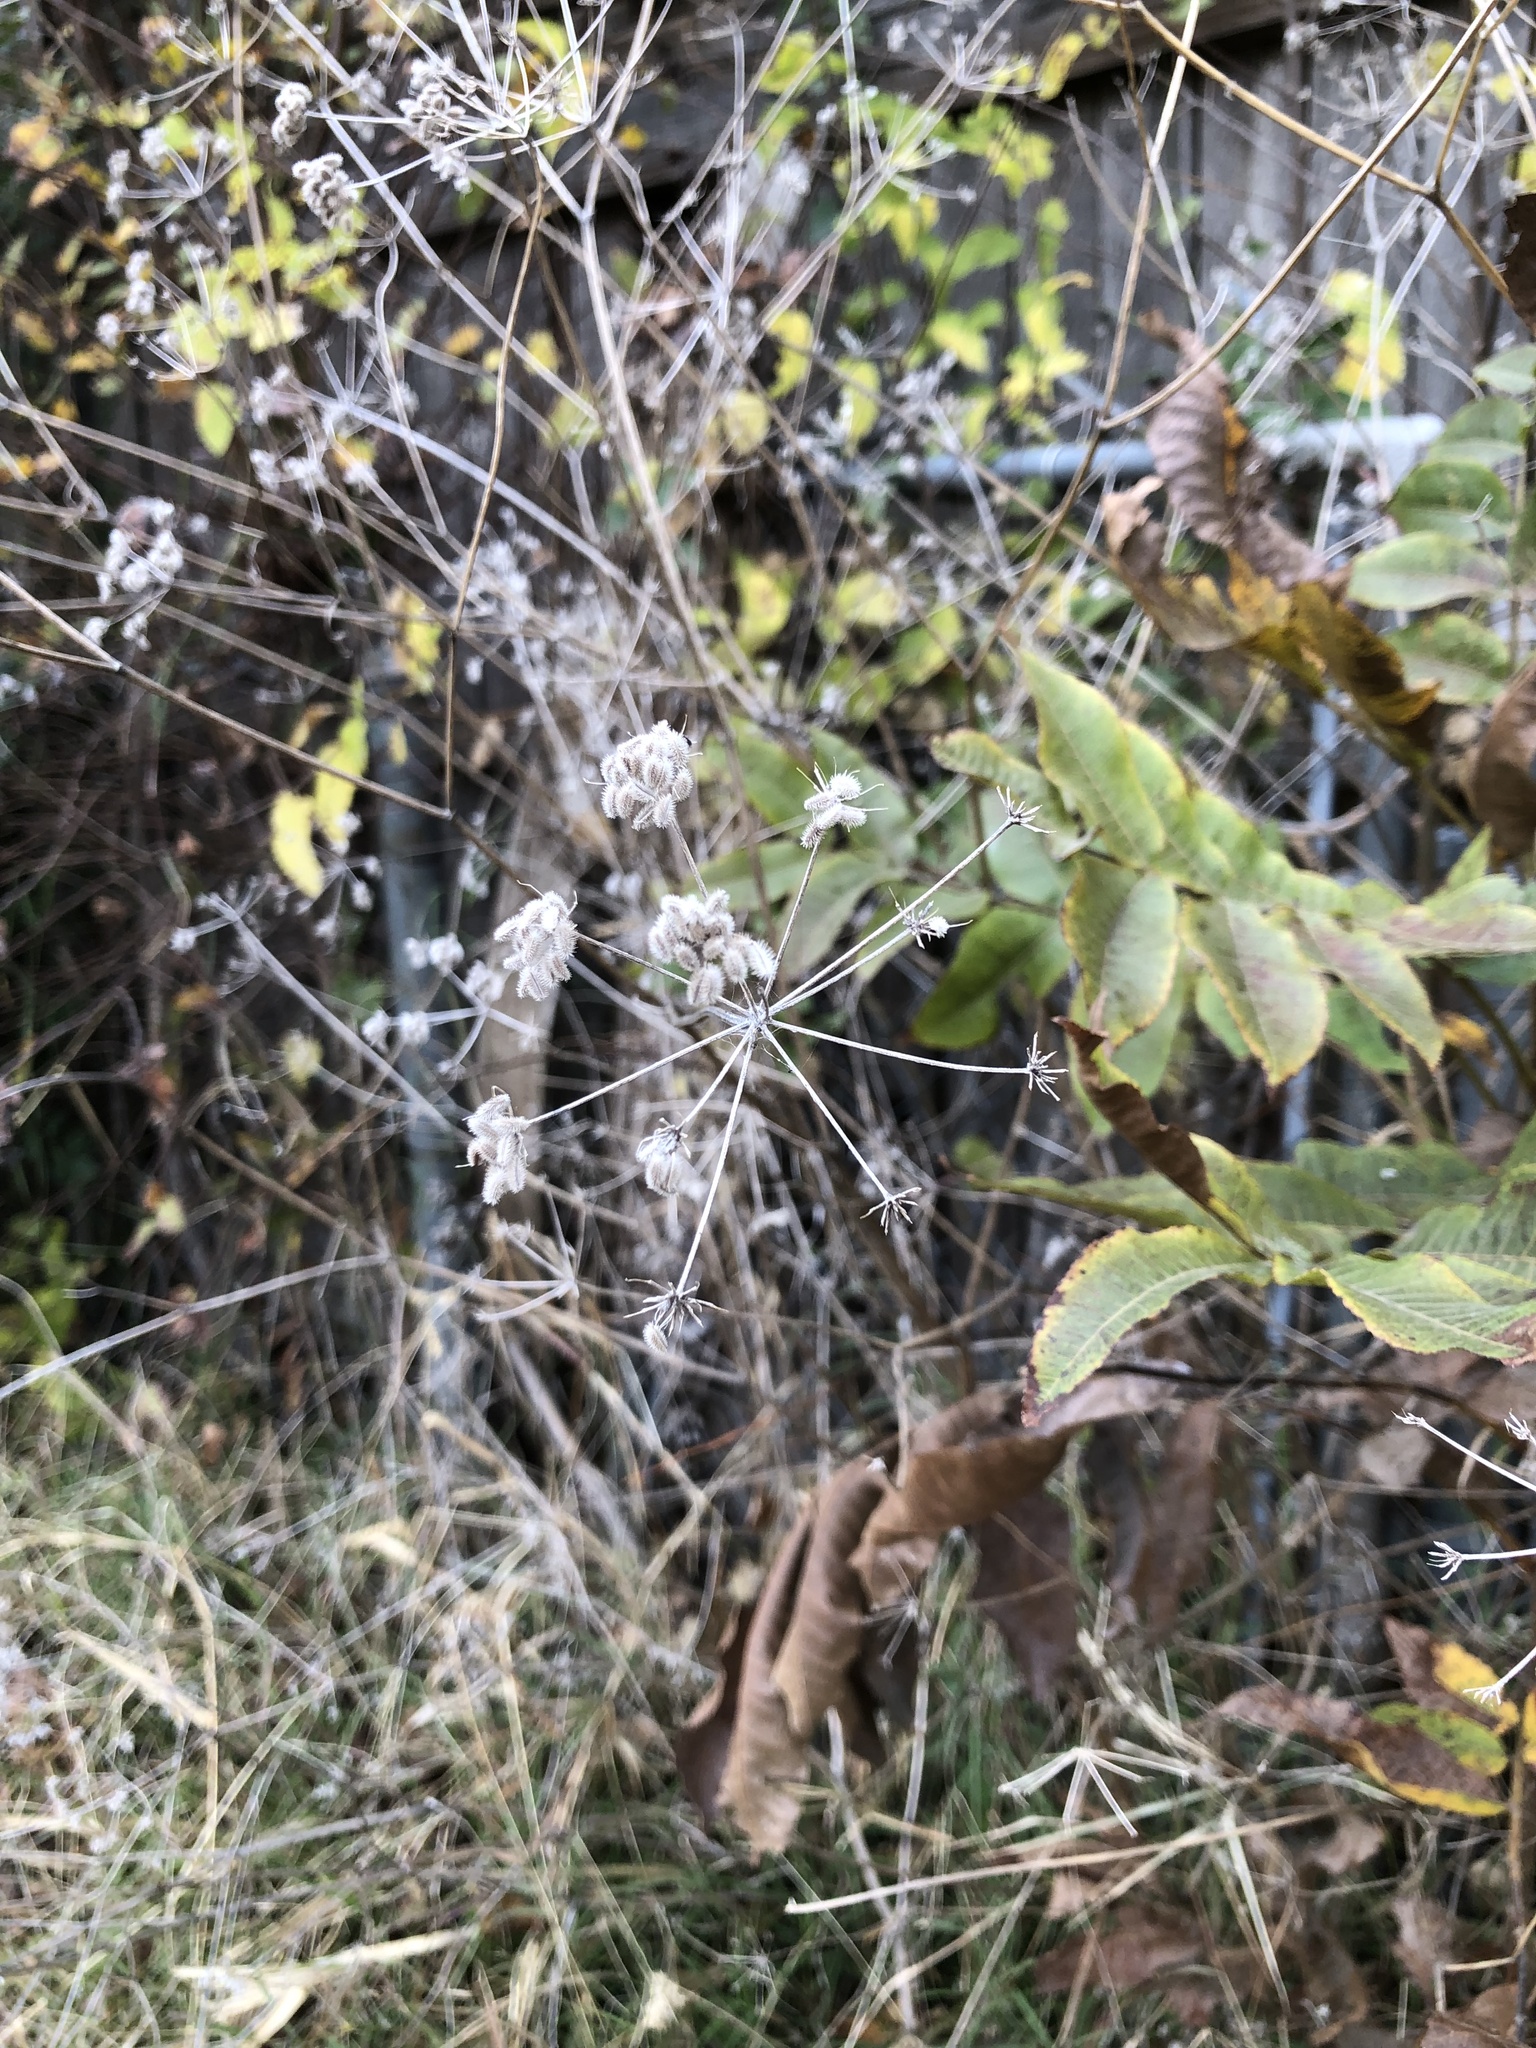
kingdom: Plantae
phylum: Tracheophyta
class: Magnoliopsida
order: Apiales
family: Apiaceae
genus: Torilis
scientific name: Torilis arvensis
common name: Spreading hedge-parsley
